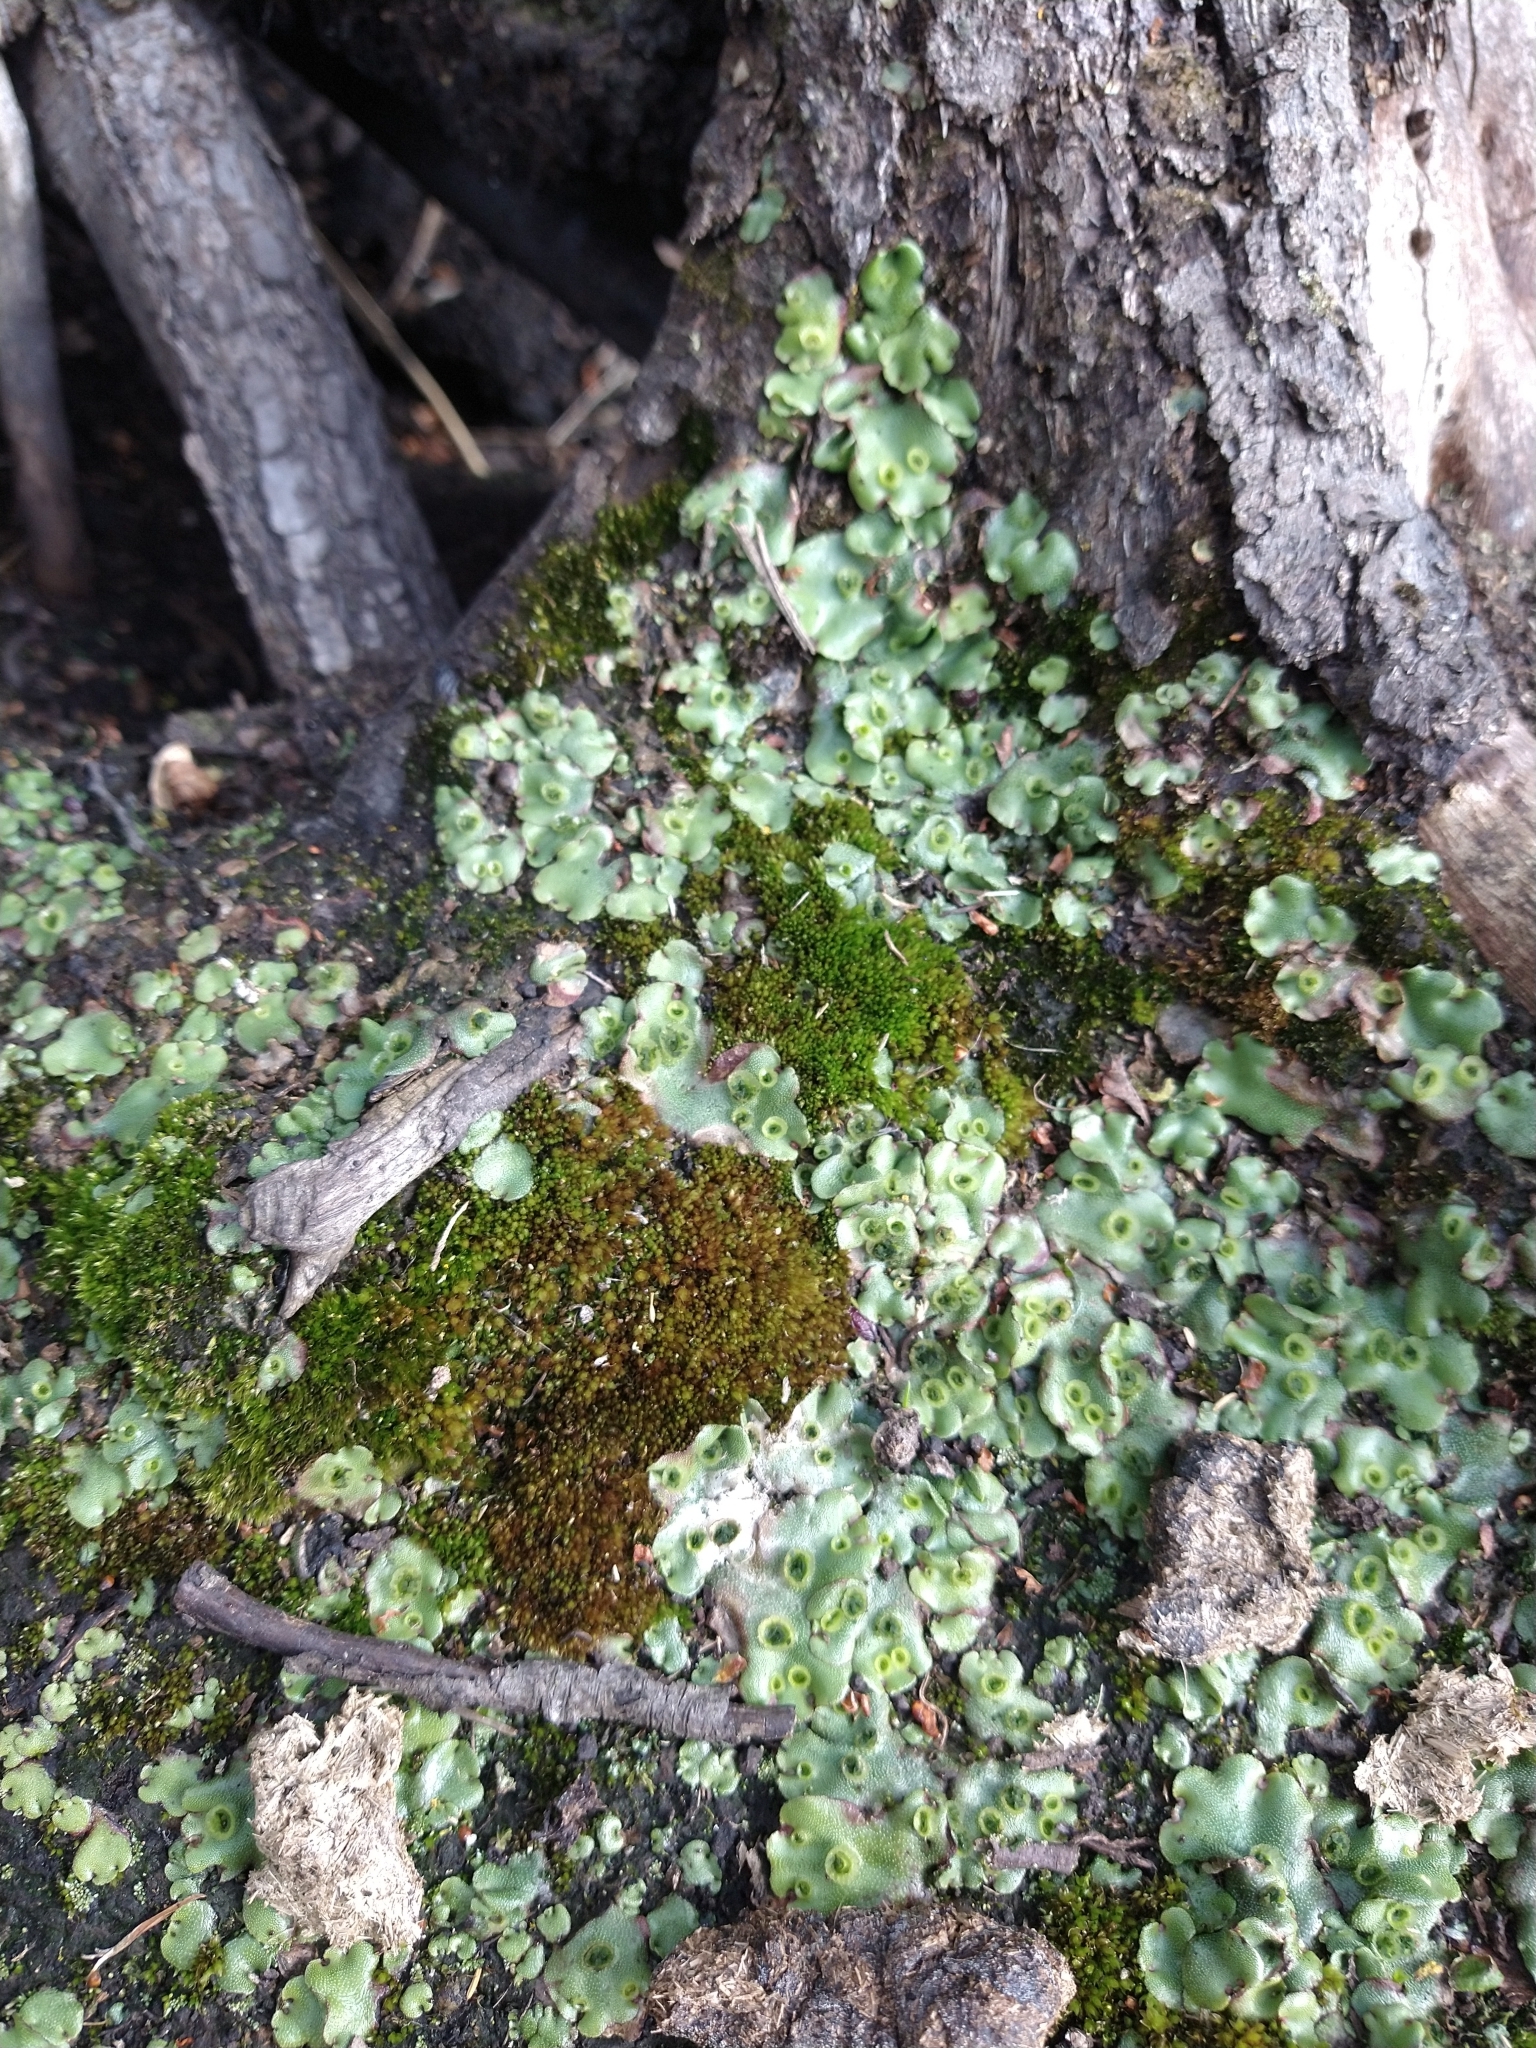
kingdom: Plantae
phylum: Marchantiophyta
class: Marchantiopsida
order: Marchantiales
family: Marchantiaceae
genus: Marchantia
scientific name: Marchantia berteroana
